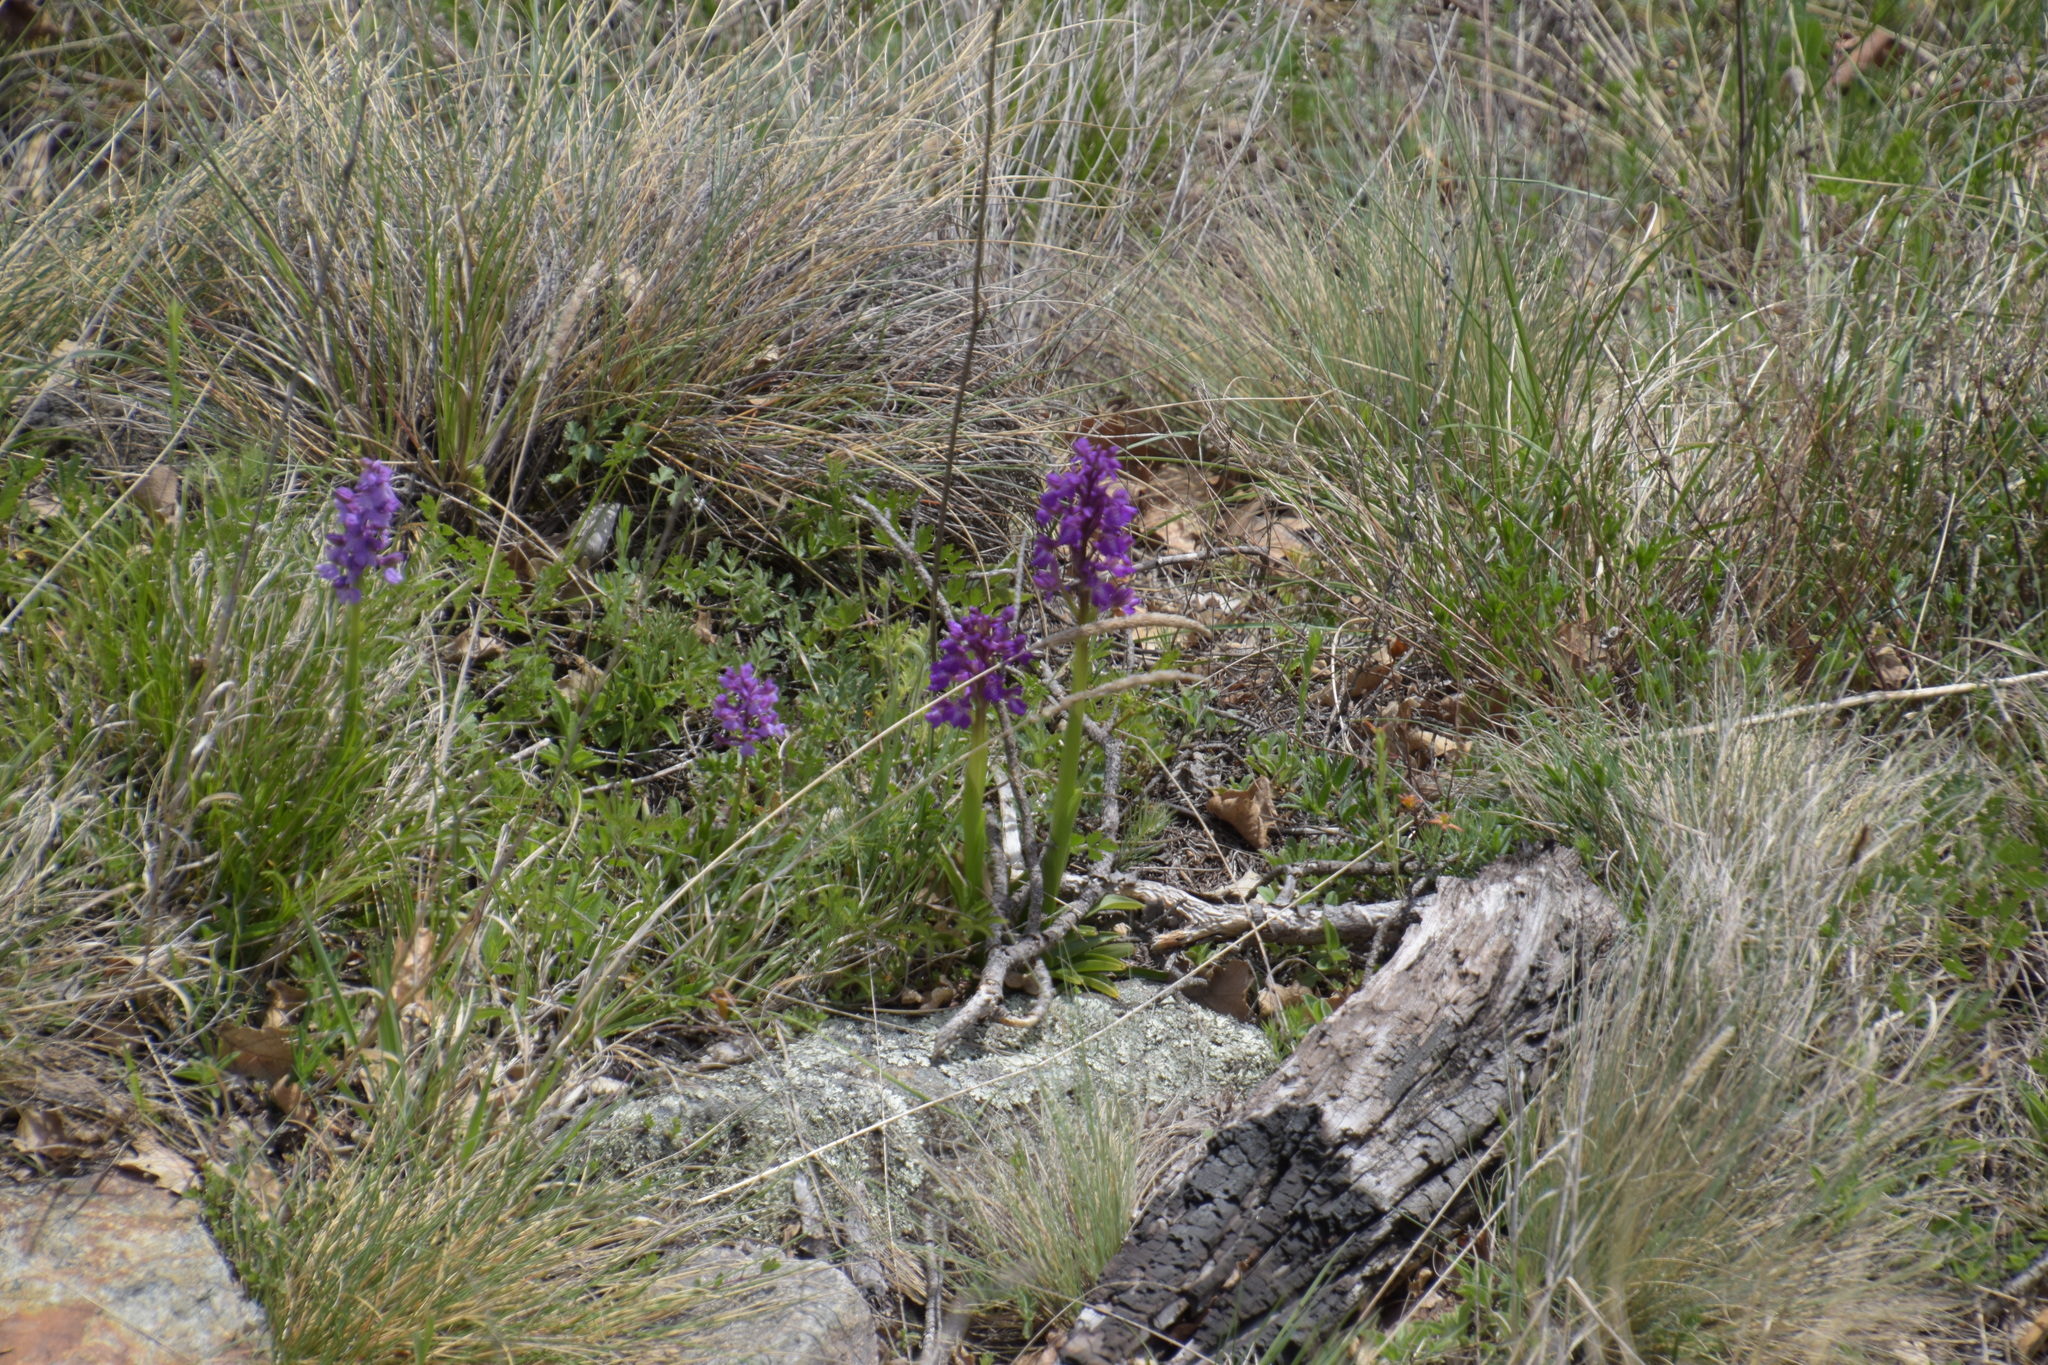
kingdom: Plantae
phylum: Tracheophyta
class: Liliopsida
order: Asparagales
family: Orchidaceae
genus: Anacamptis
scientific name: Anacamptis morio
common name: Green-winged orchid
